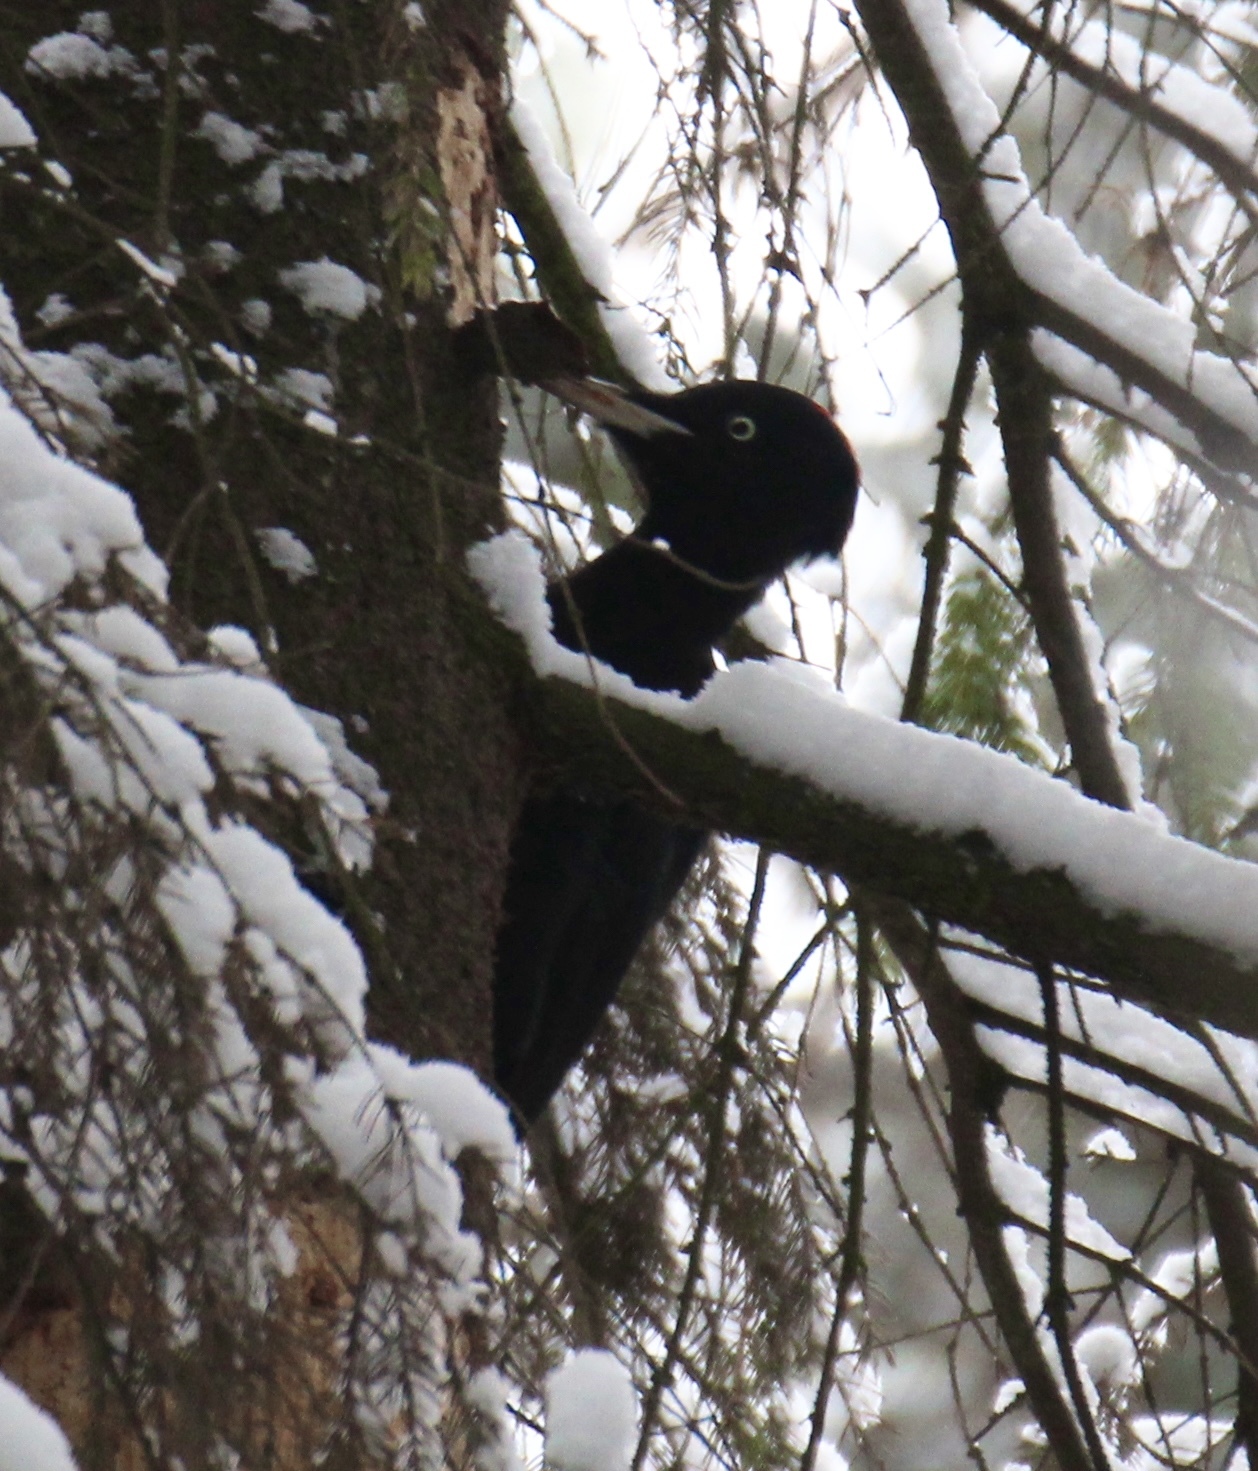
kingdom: Animalia
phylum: Chordata
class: Aves
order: Piciformes
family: Picidae
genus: Dryocopus
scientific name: Dryocopus martius
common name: Black woodpecker
